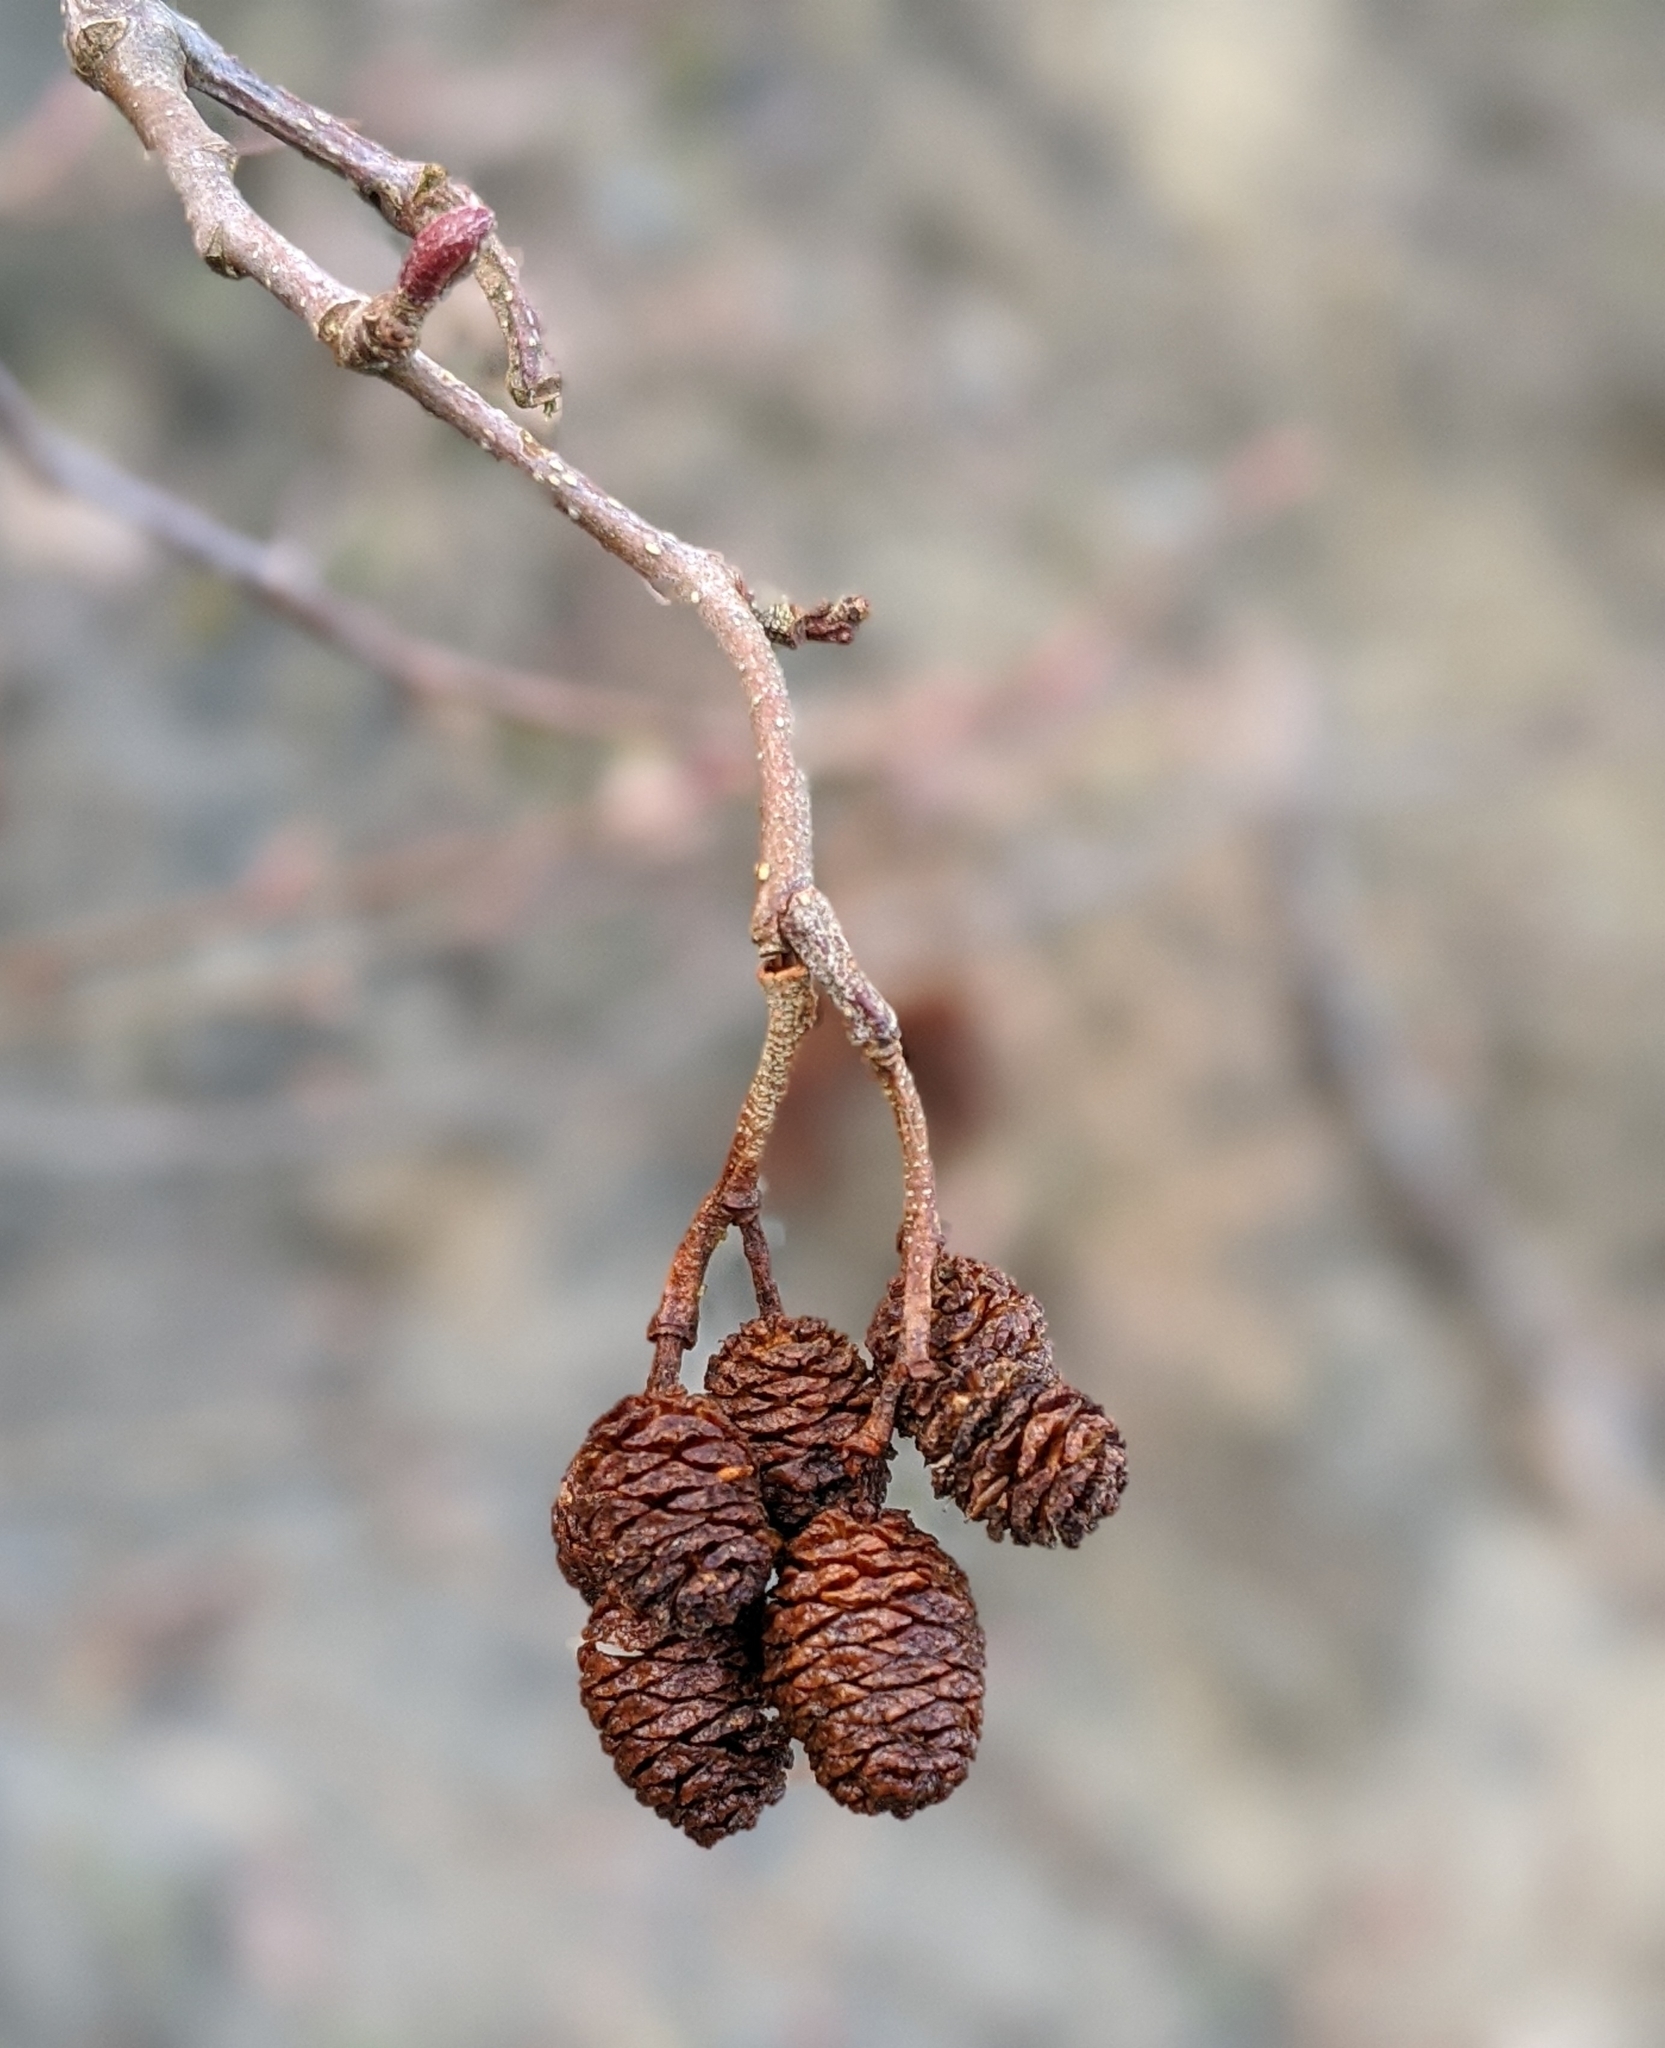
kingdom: Plantae
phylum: Tracheophyta
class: Magnoliopsida
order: Fagales
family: Betulaceae
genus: Alnus
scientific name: Alnus rubra
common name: Red alder
